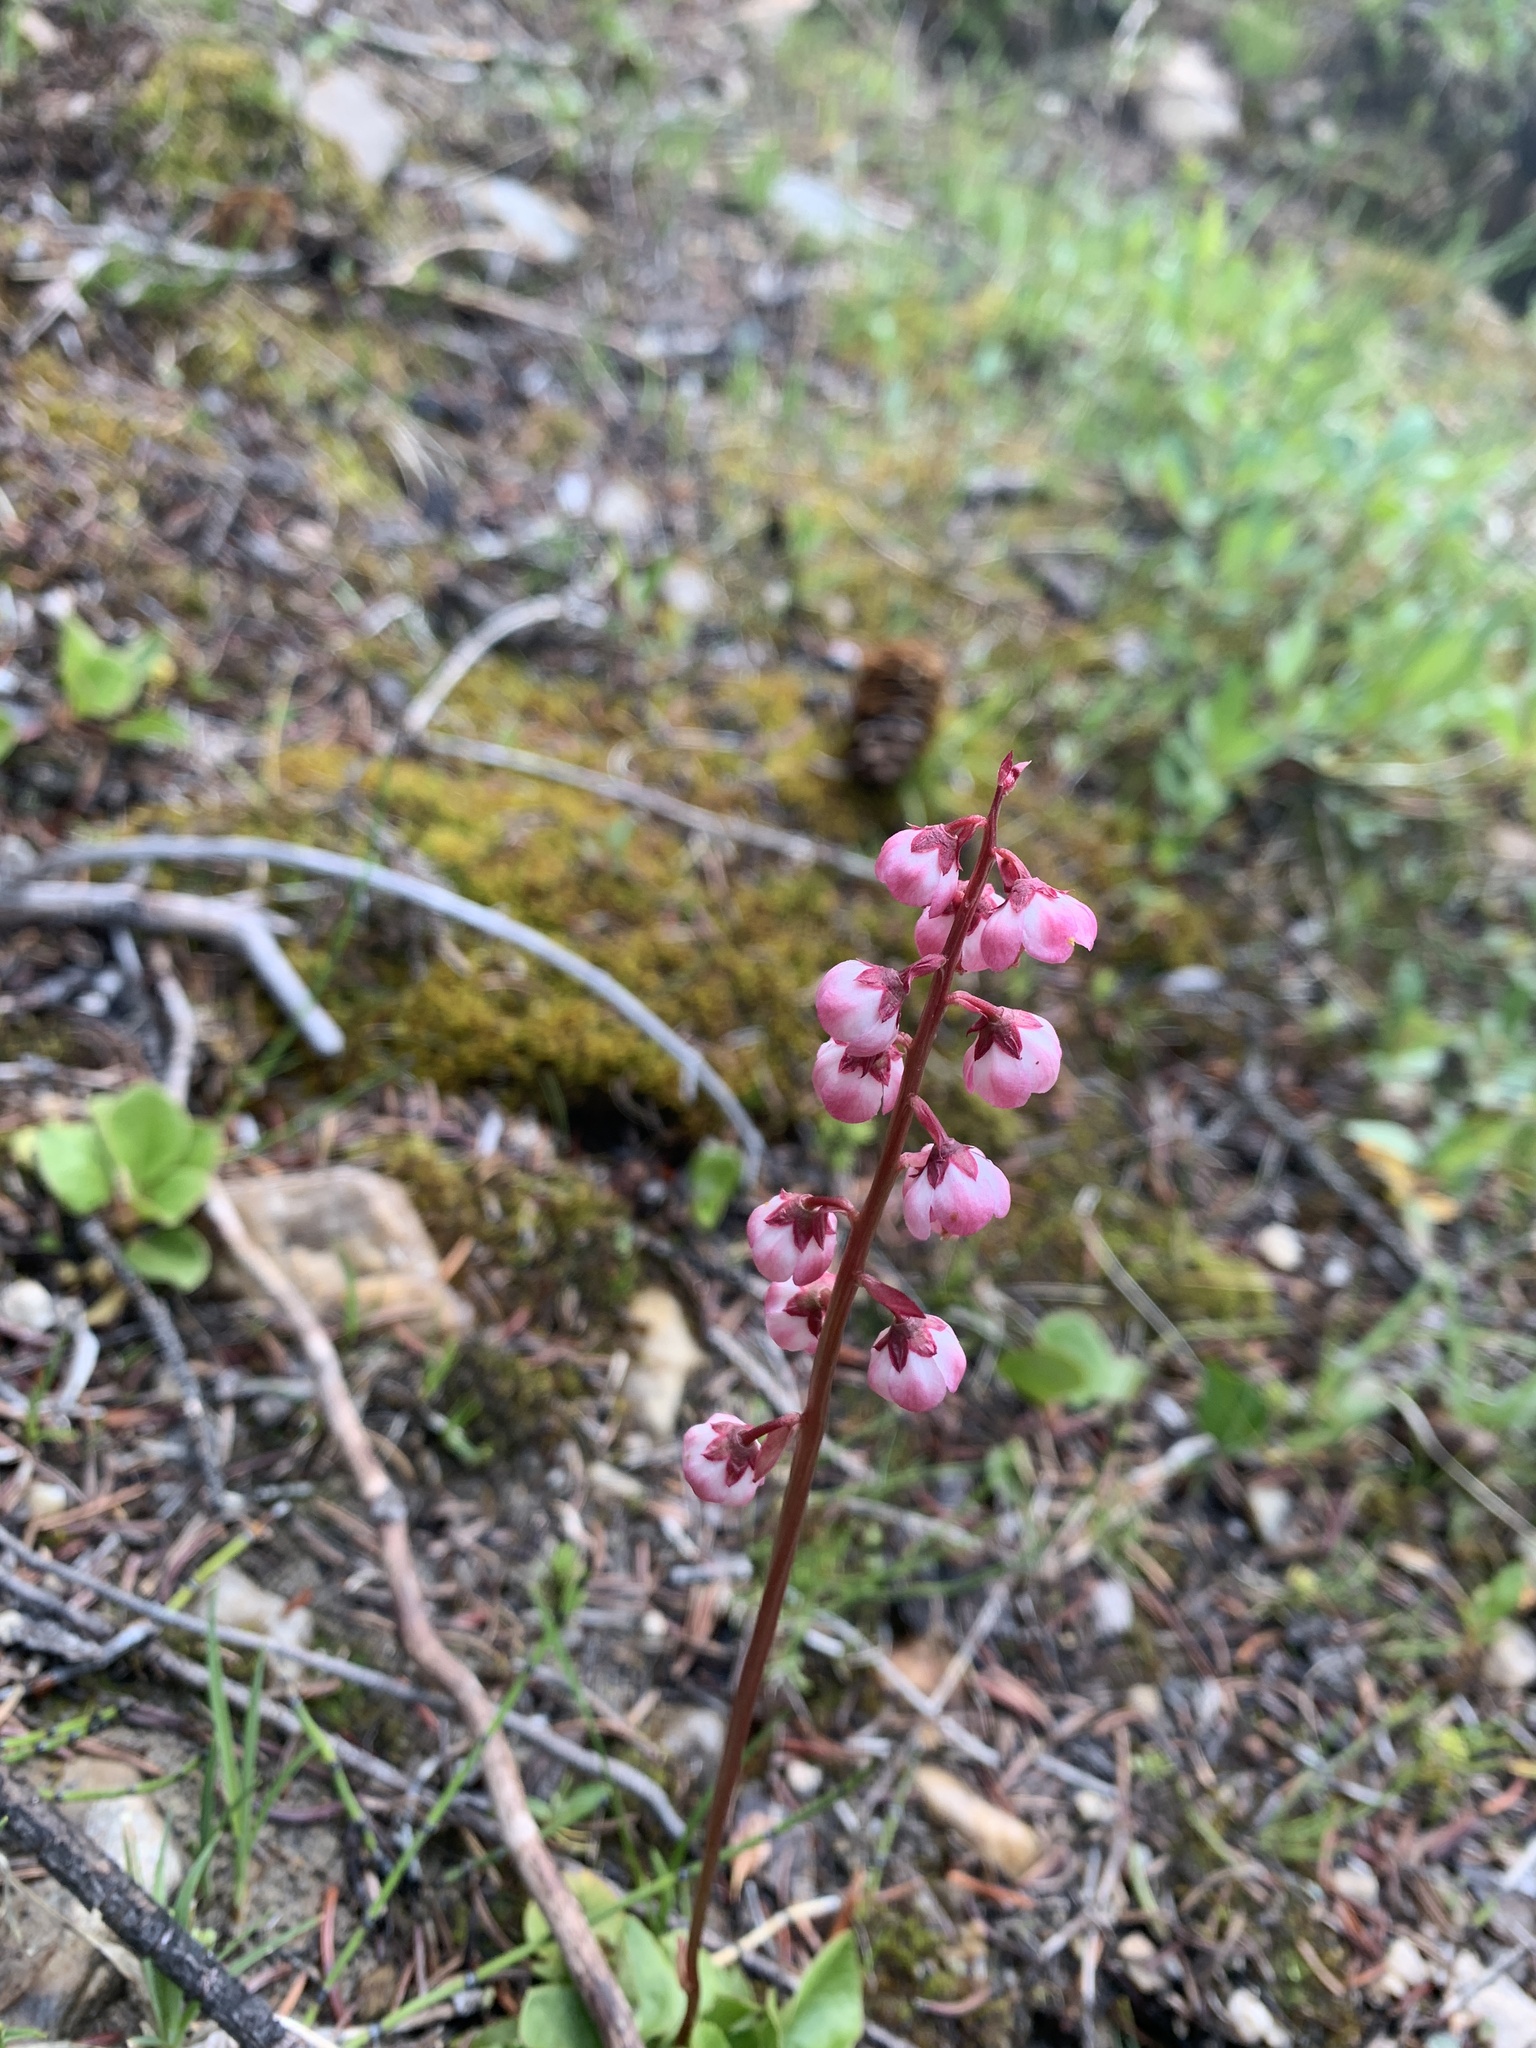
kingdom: Plantae
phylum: Tracheophyta
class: Magnoliopsida
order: Ericales
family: Ericaceae
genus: Pyrola
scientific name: Pyrola asarifolia
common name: Bog wintergreen
